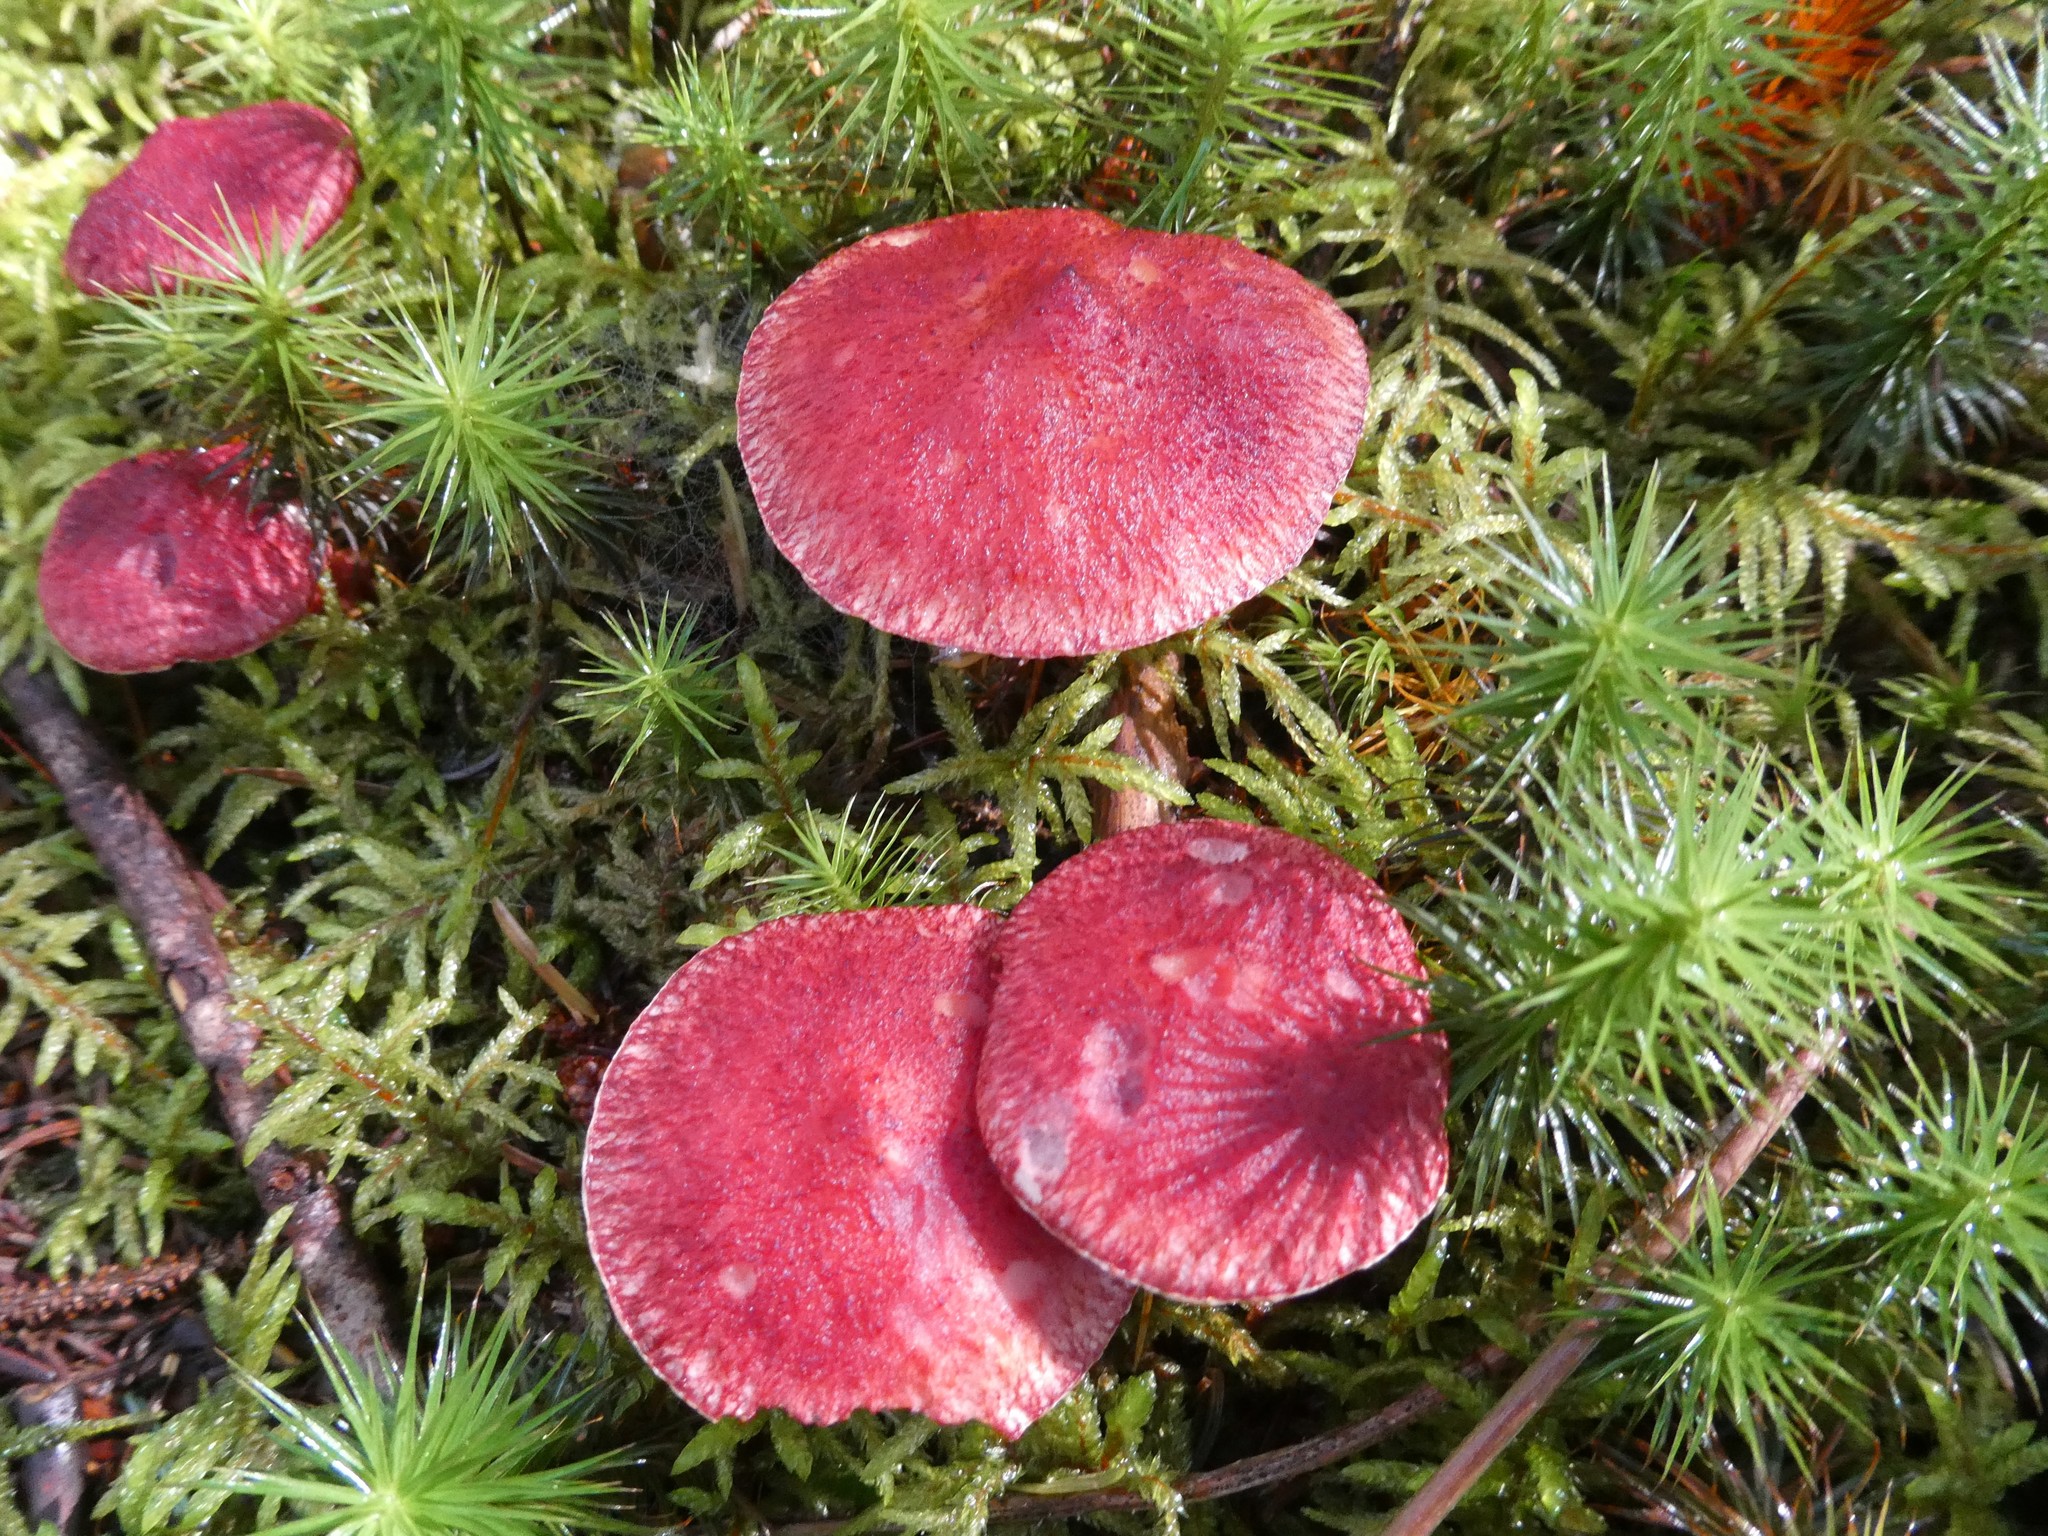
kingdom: Fungi
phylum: Basidiomycota
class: Agaricomycetes
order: Boletales
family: Boletaceae
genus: Boletus
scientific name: Boletus paluster
